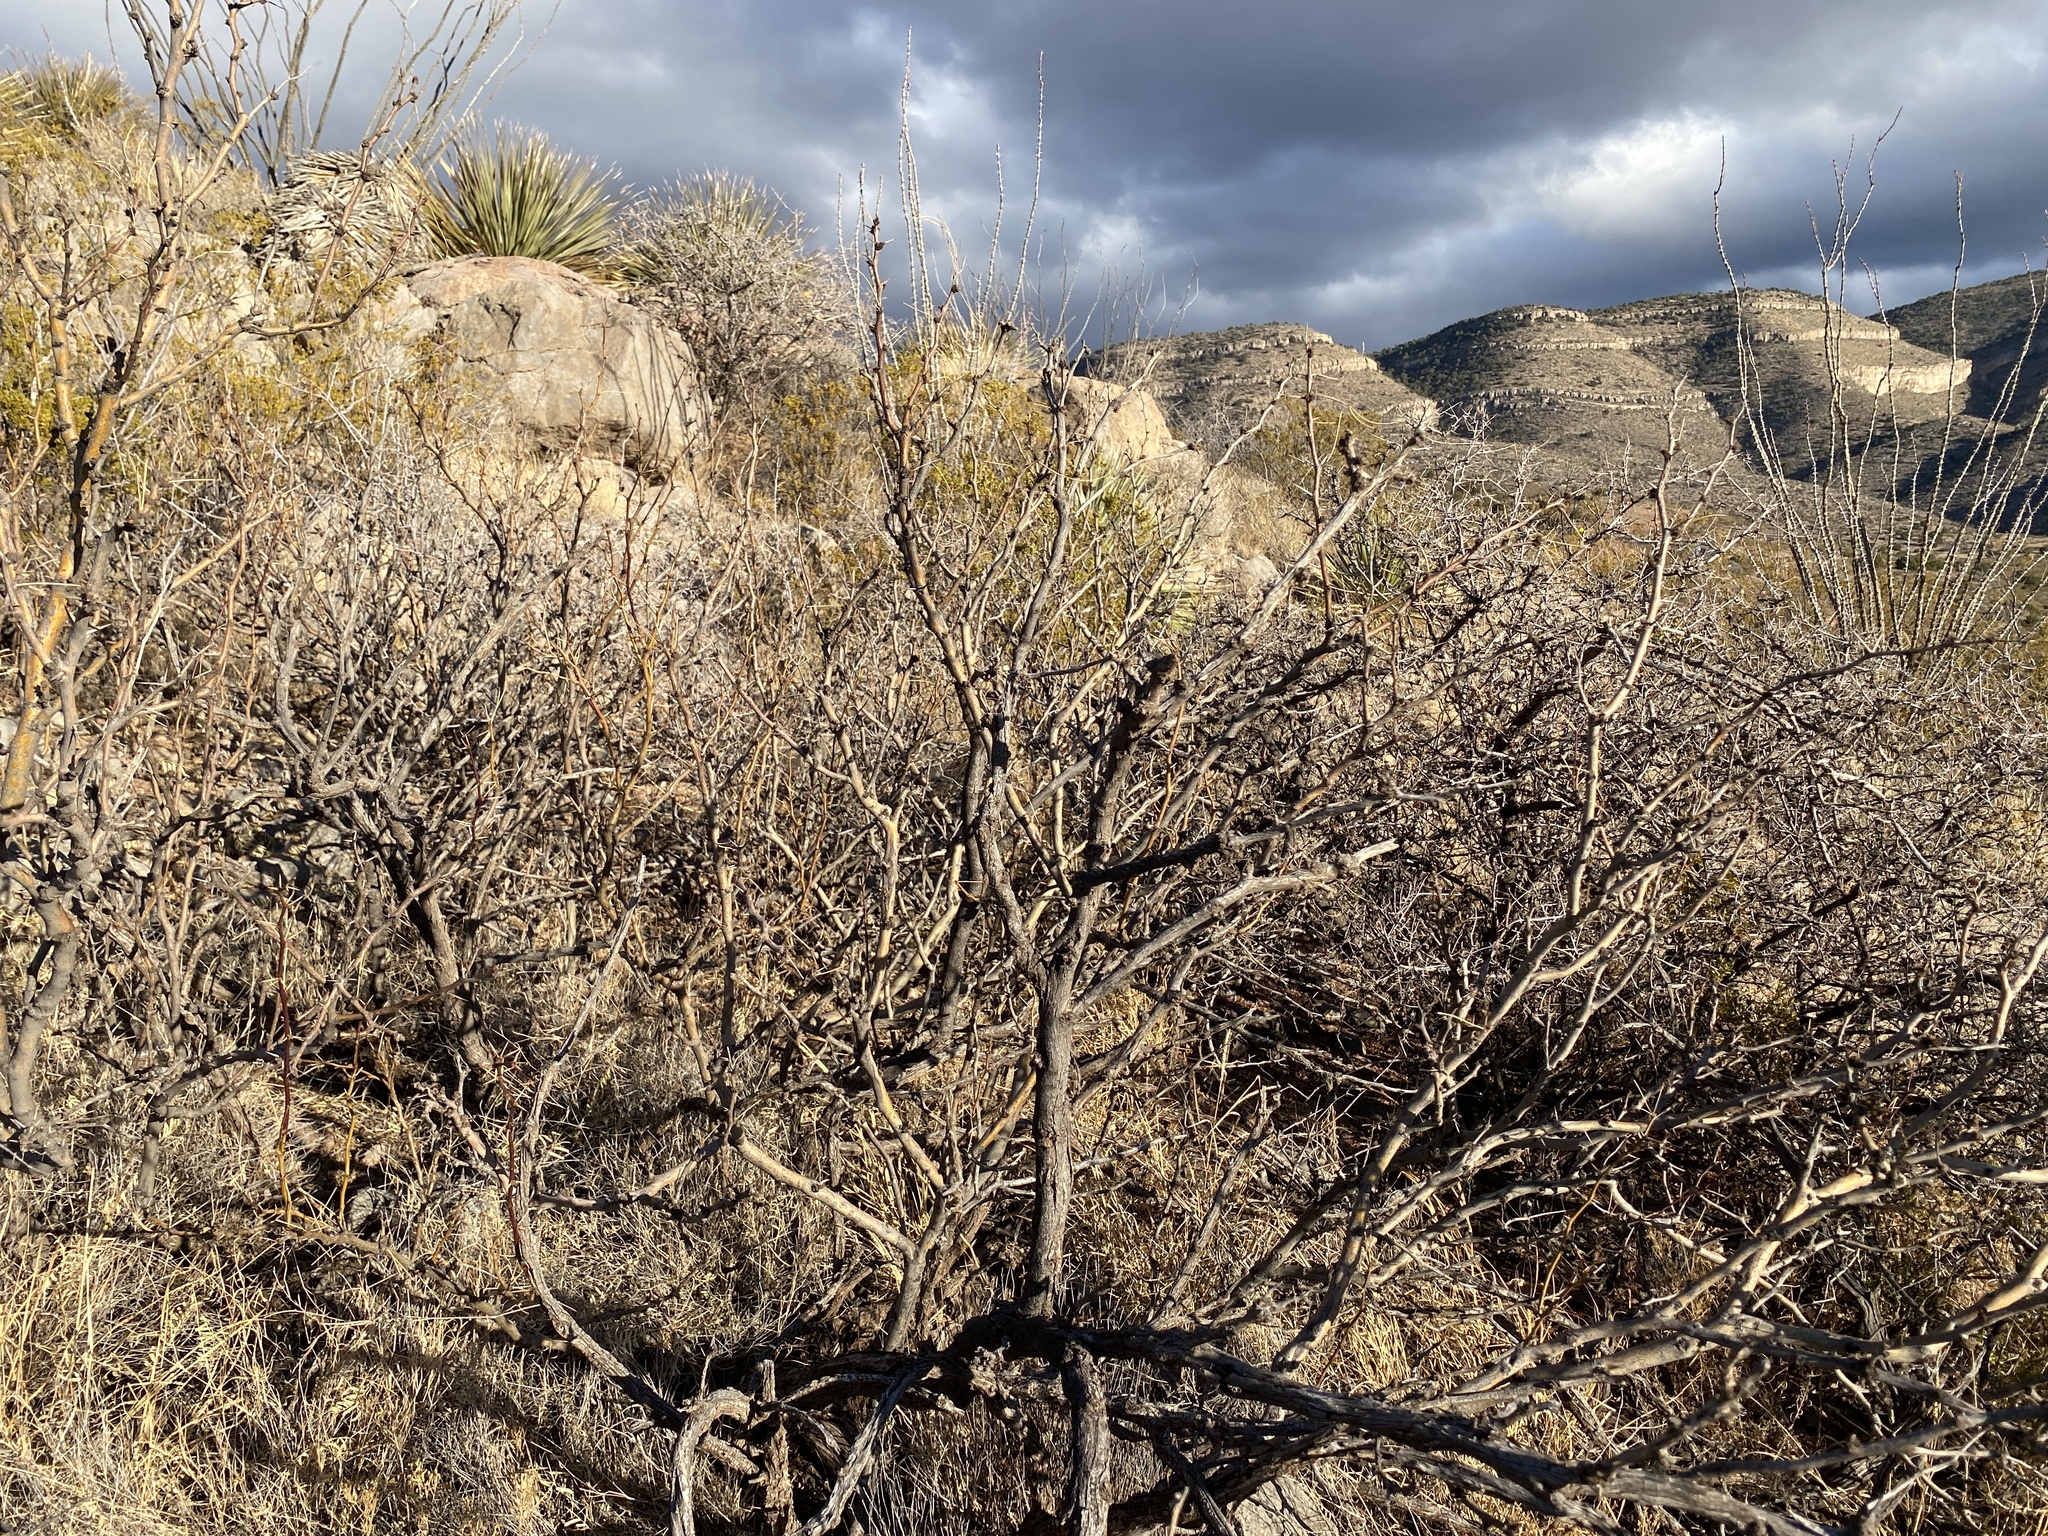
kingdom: Plantae
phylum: Tracheophyta
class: Magnoliopsida
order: Fabales
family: Fabaceae
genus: Prosopis
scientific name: Prosopis glandulosa
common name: Honey mesquite
